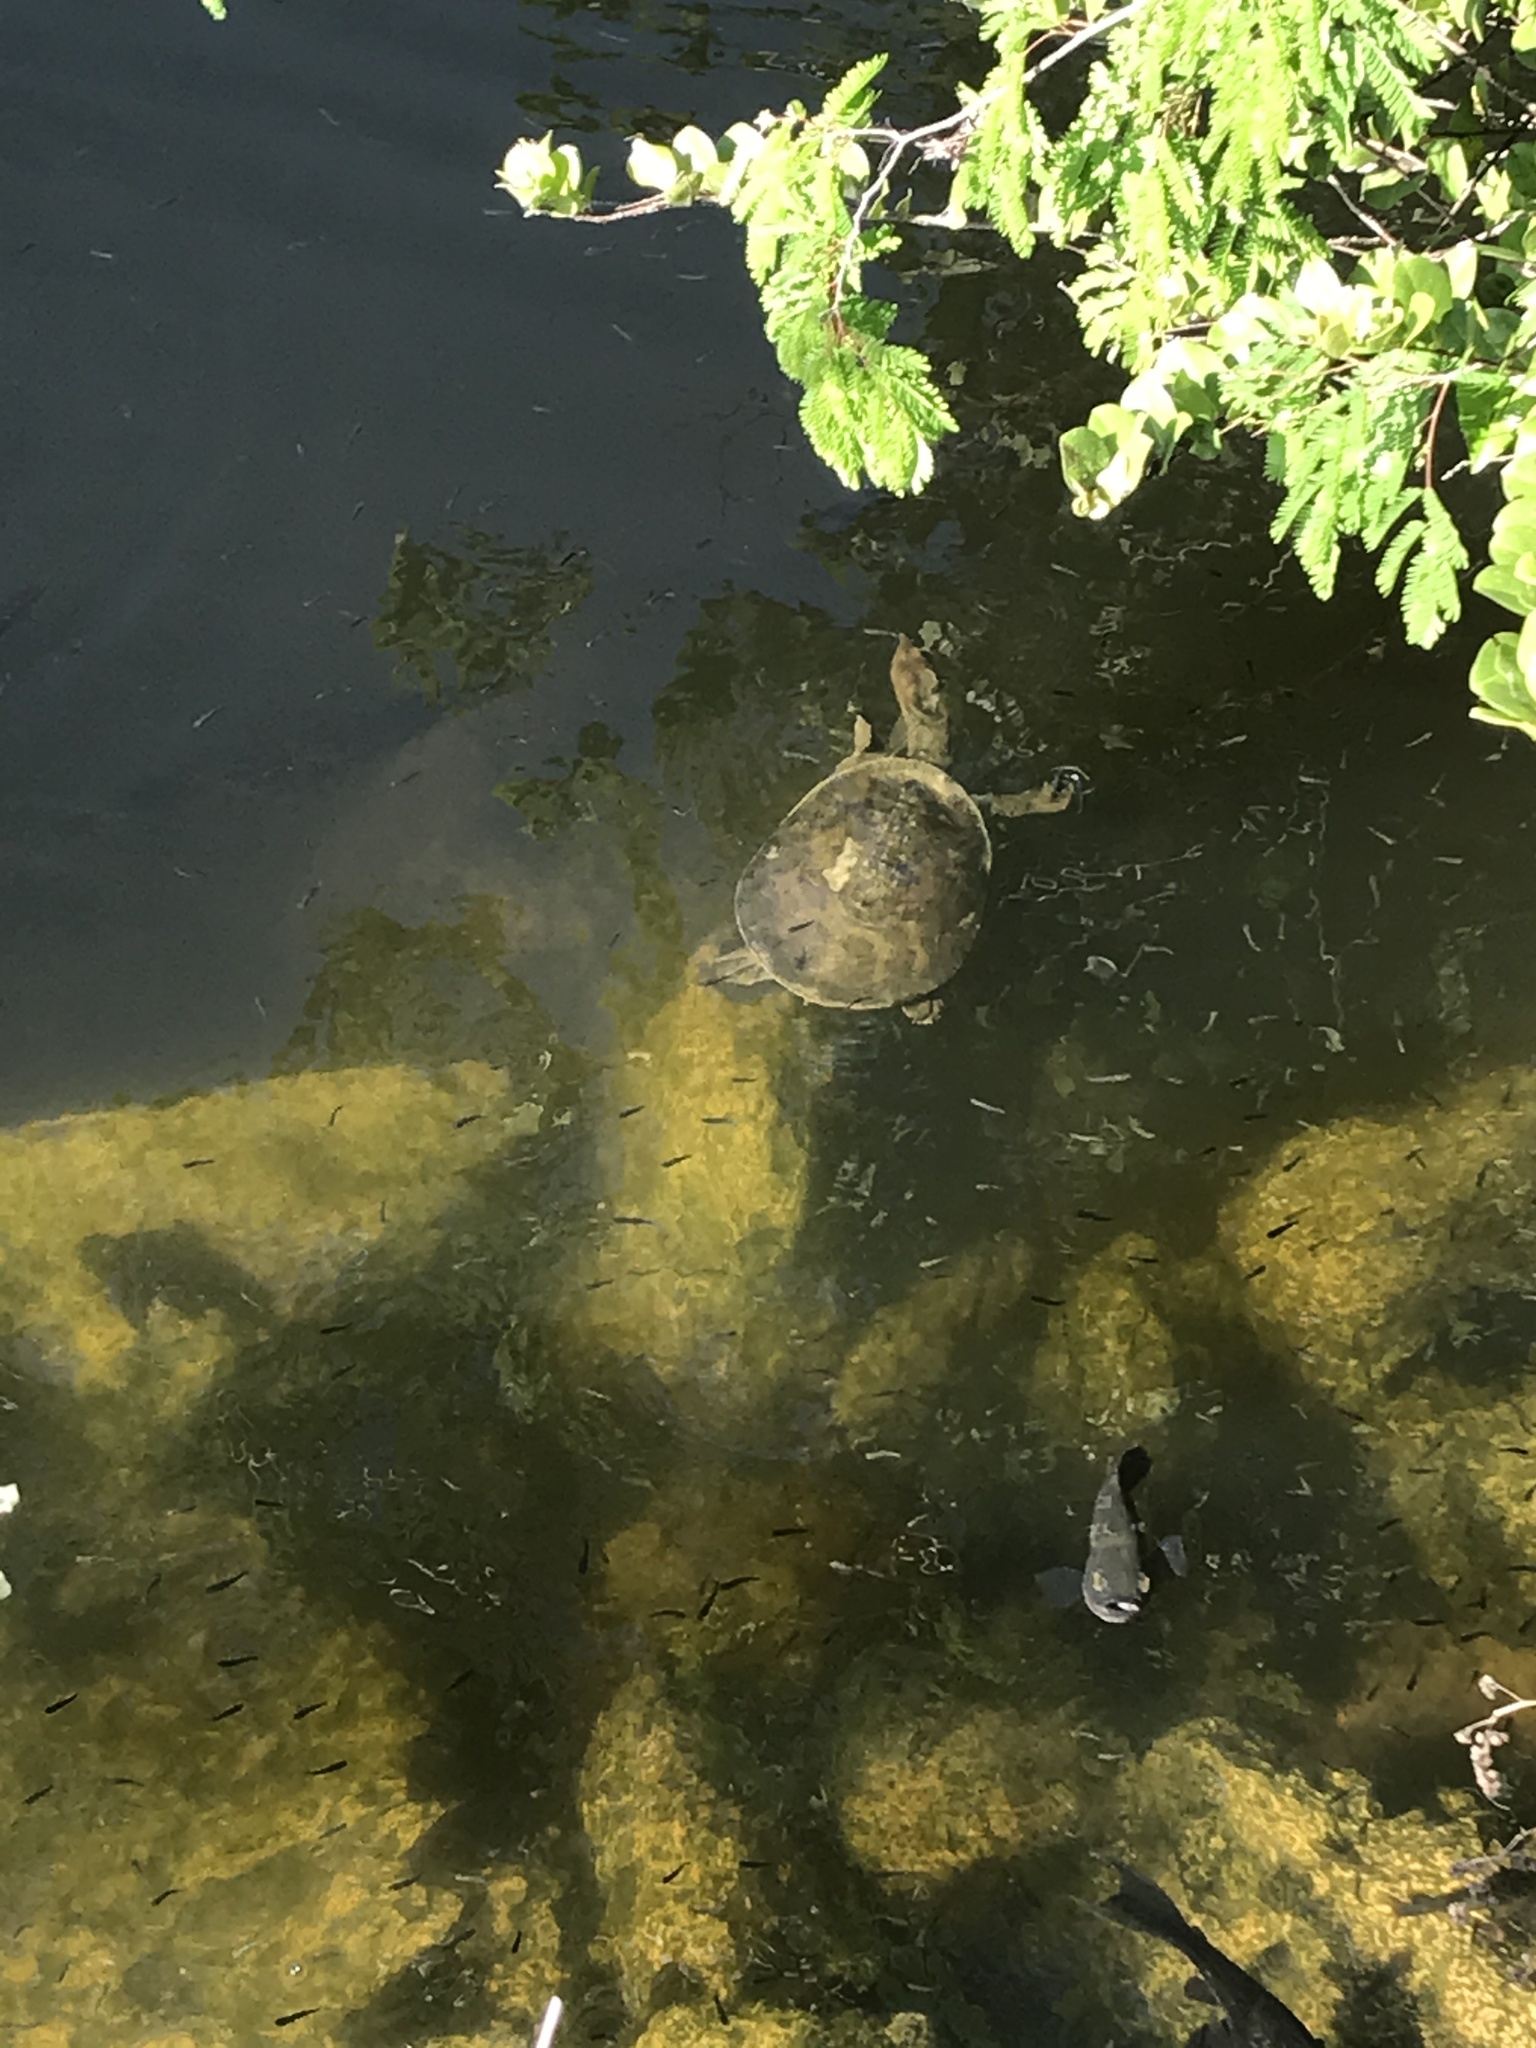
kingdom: Animalia
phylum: Chordata
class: Testudines
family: Trionychidae
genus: Apalone
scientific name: Apalone ferox
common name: Florida softshell turtle
